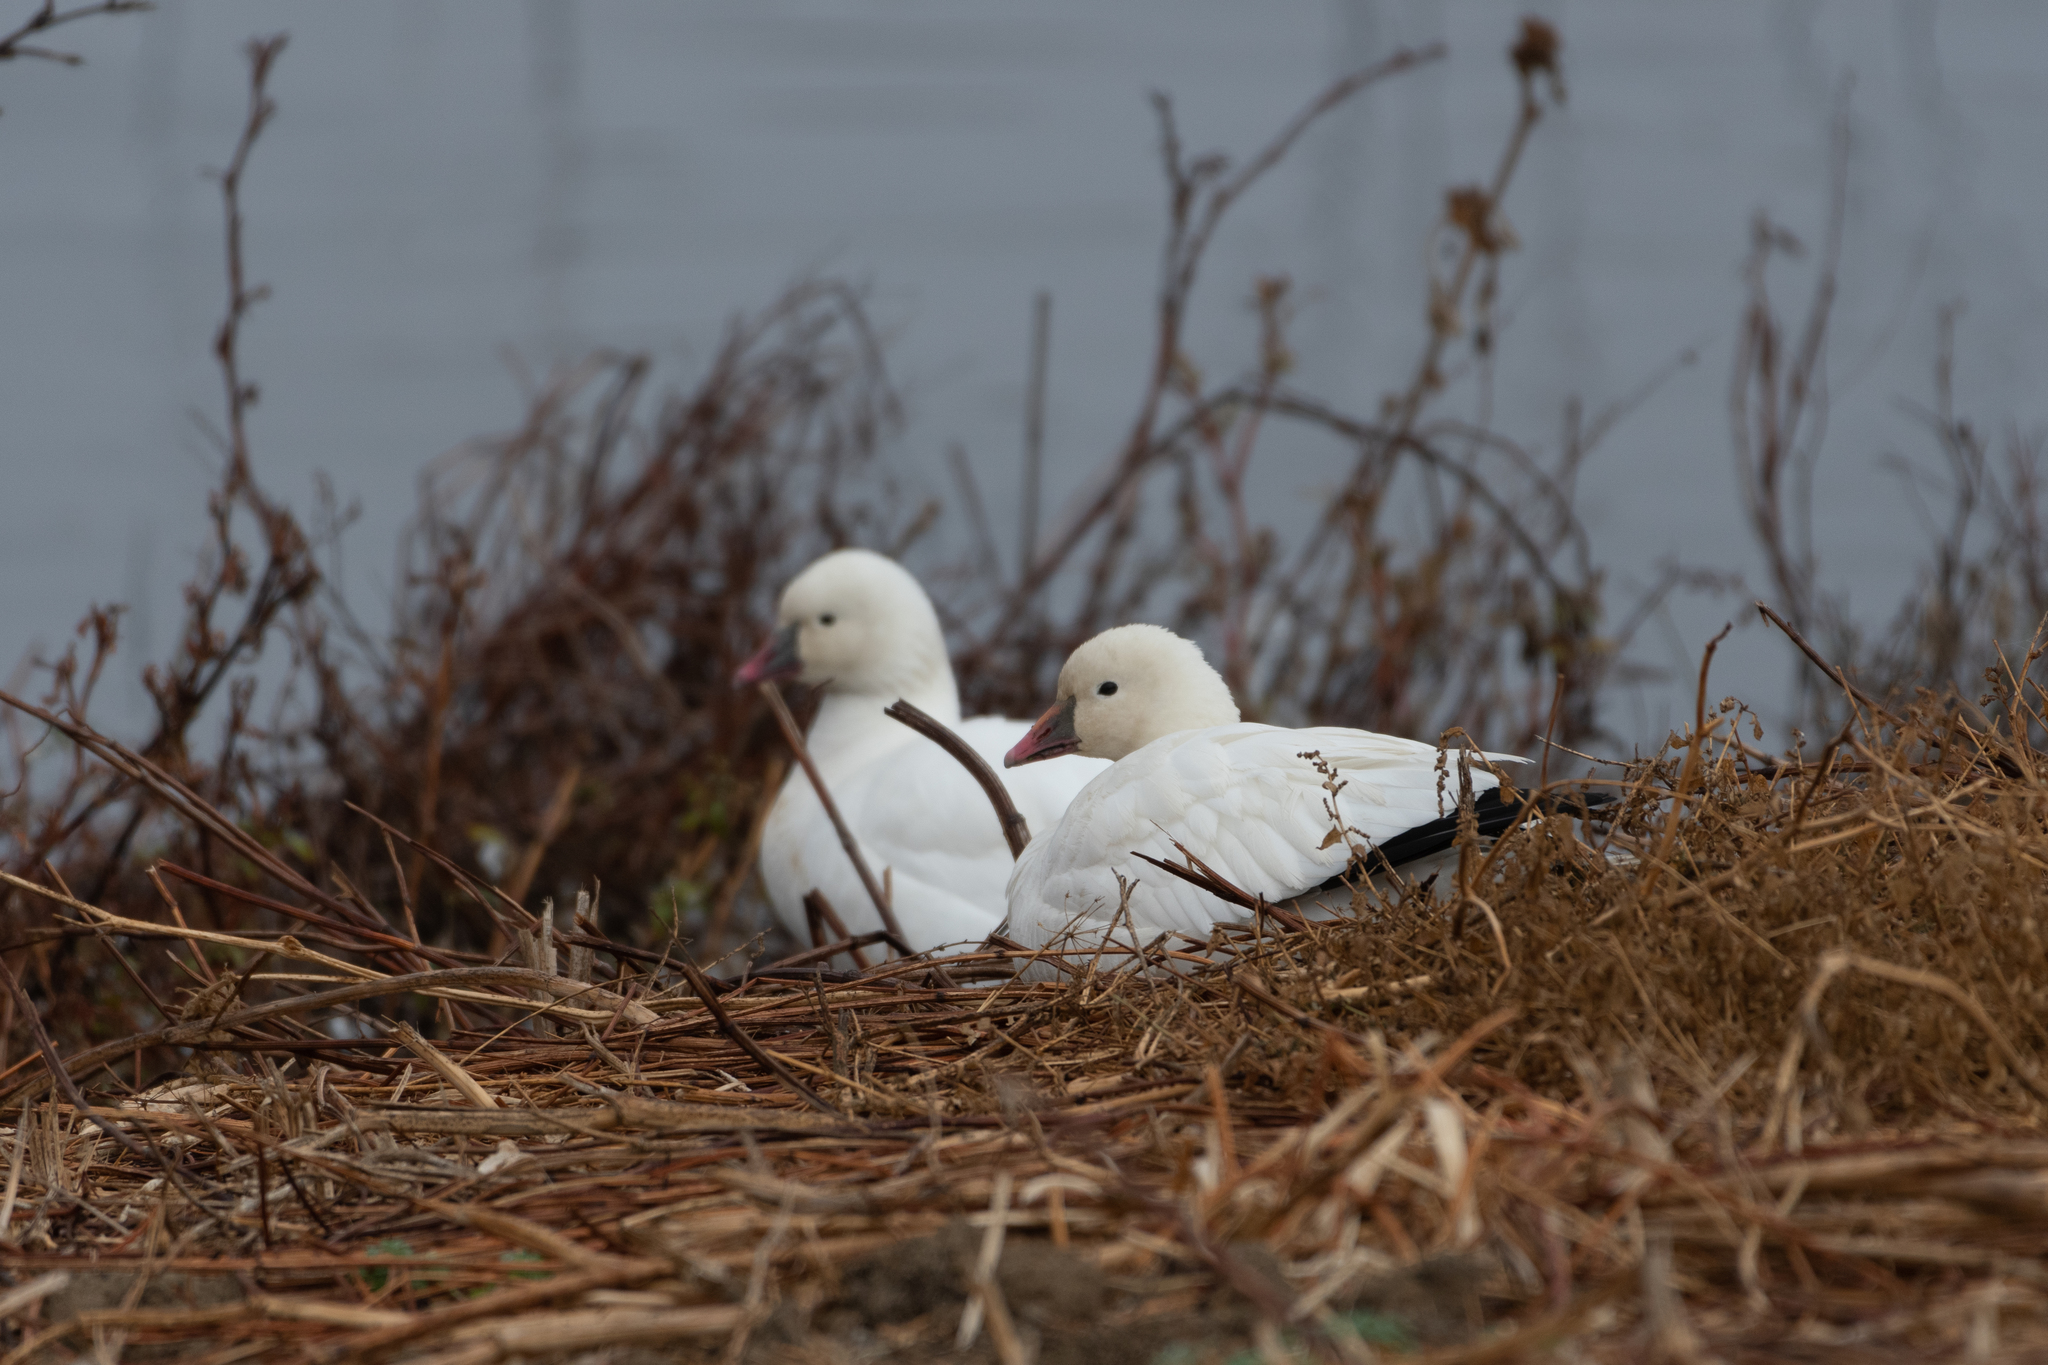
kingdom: Animalia
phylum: Chordata
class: Aves
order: Anseriformes
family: Anatidae
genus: Anser
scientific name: Anser rossii
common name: Ross's goose
